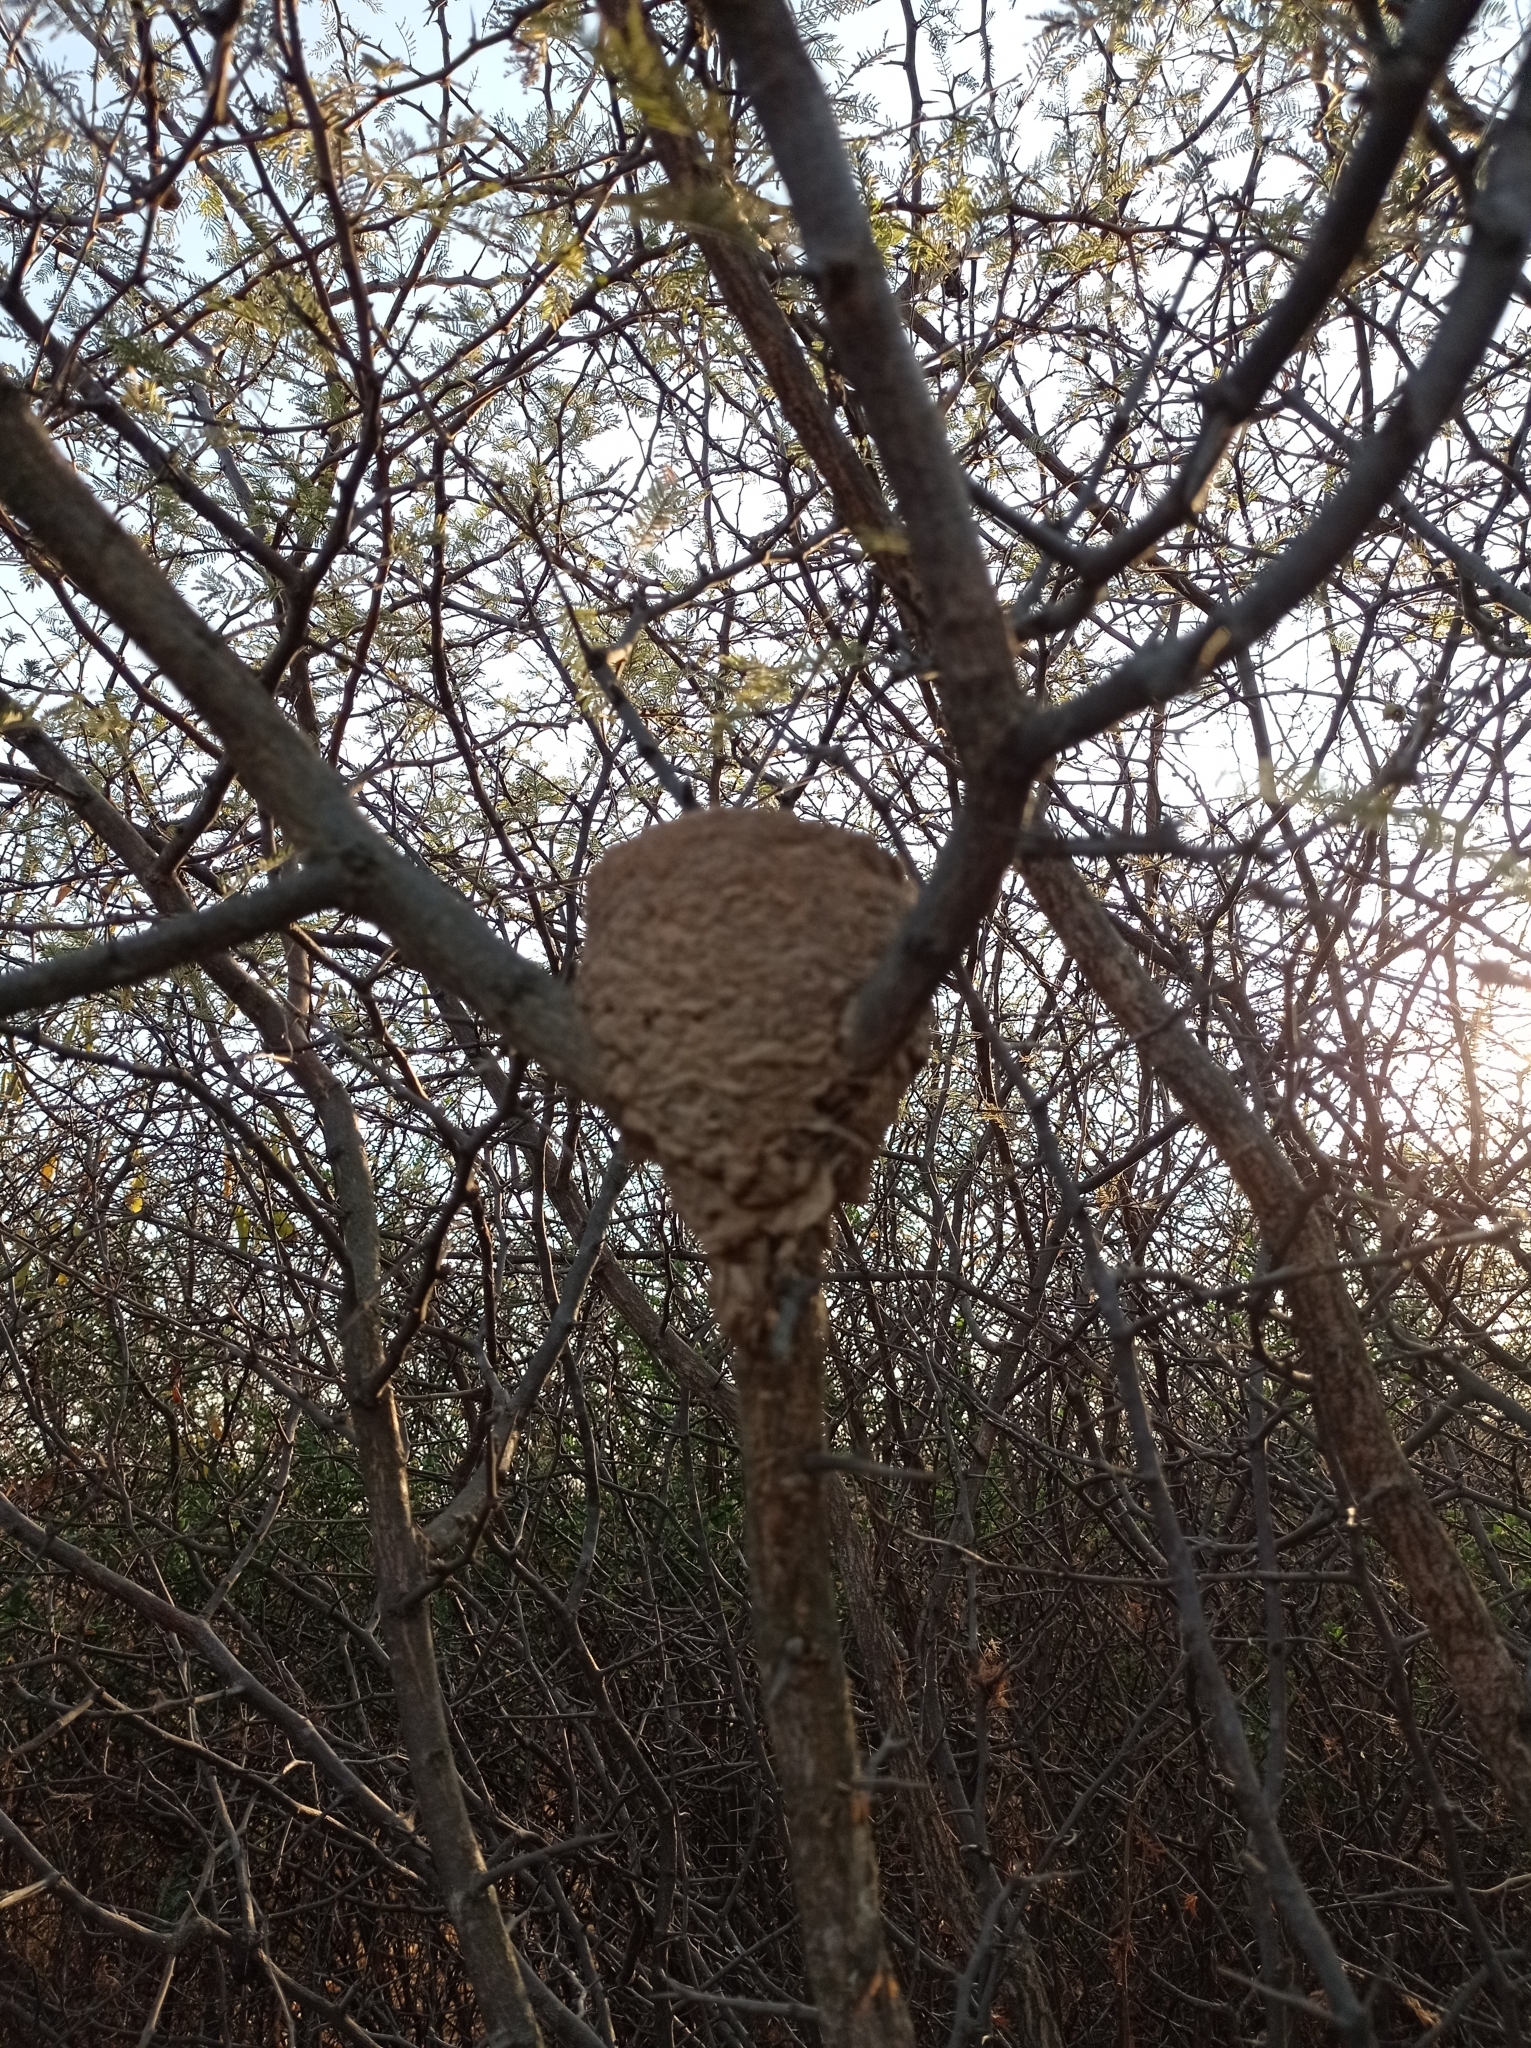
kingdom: Animalia
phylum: Chordata
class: Aves
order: Passeriformes
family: Muscicapidae
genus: Cichladusa
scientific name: Cichladusa guttata
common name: Spotted palm thrush
